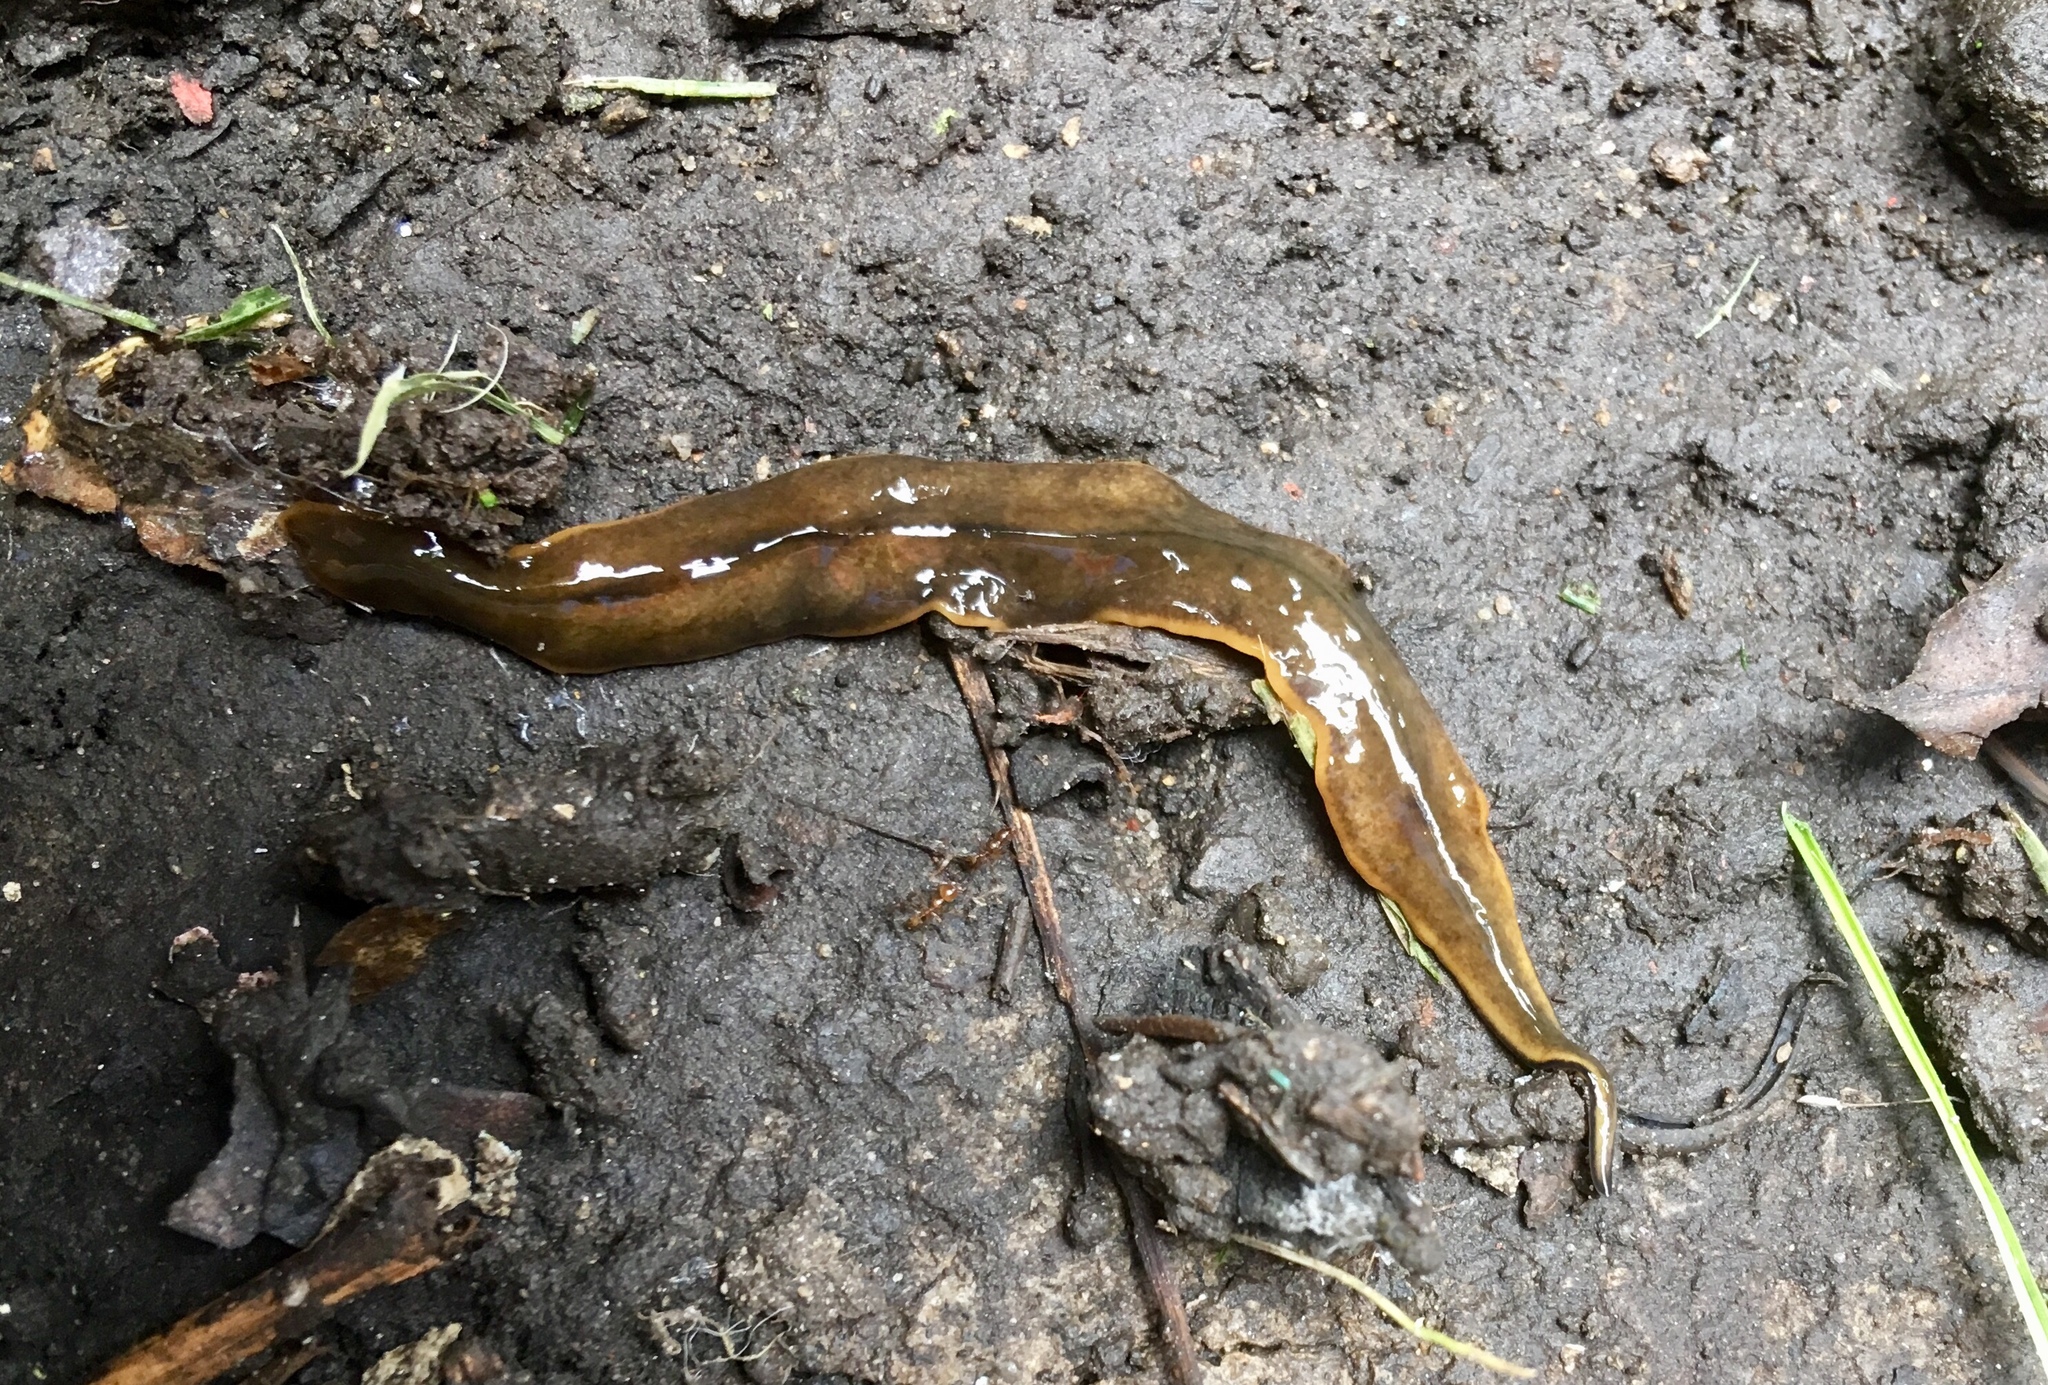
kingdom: Animalia
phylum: Platyhelminthes
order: Tricladida
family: Geoplanidae
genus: Amaga
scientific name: Amaga amagensis
